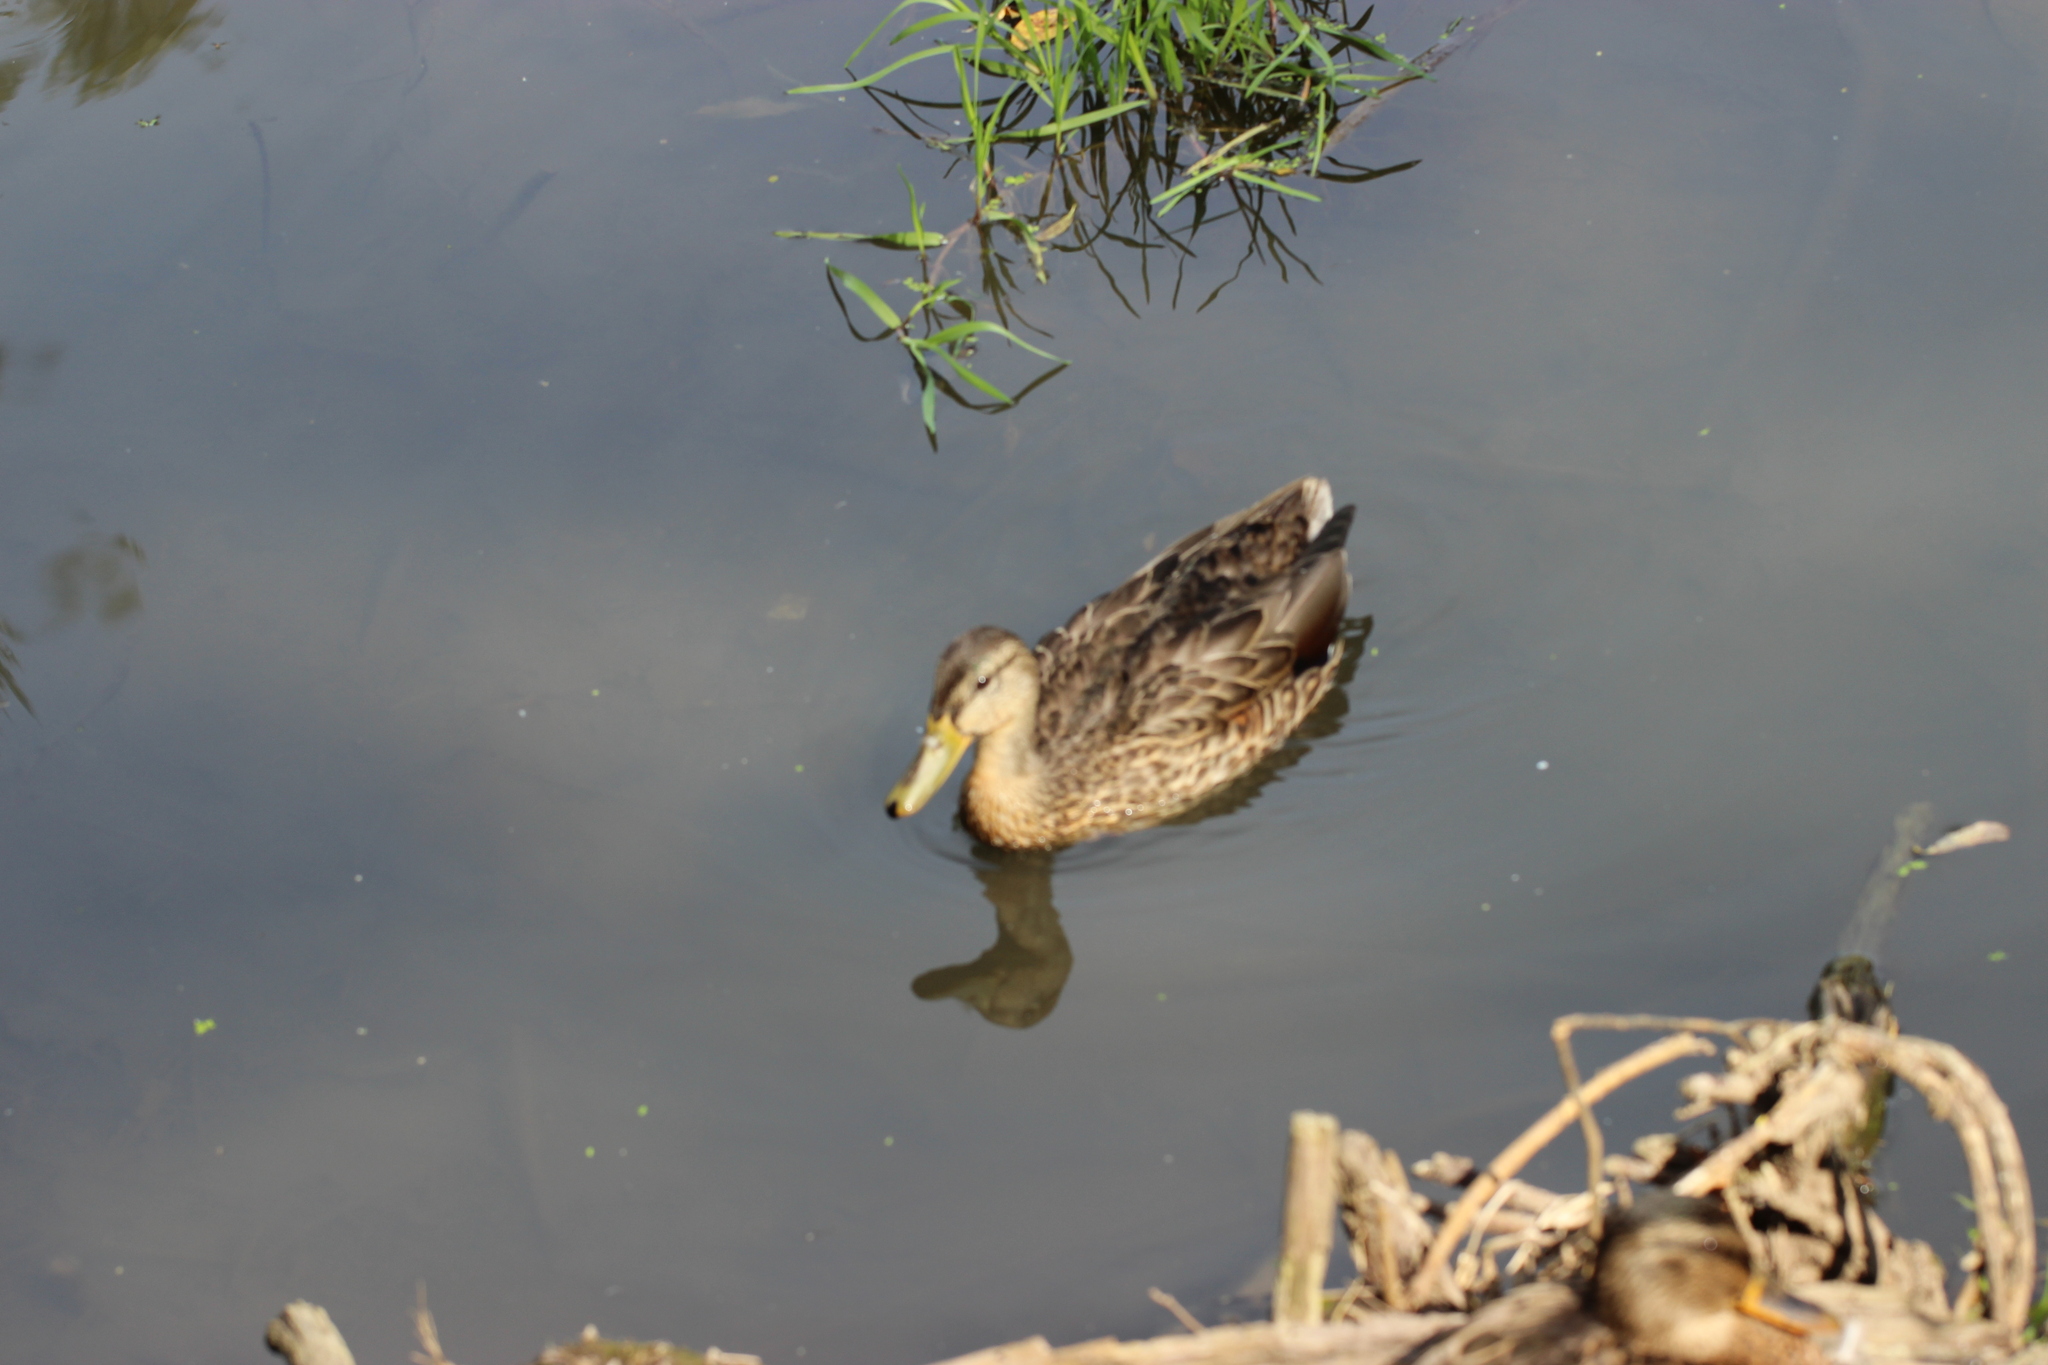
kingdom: Animalia
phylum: Chordata
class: Aves
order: Anseriformes
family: Anatidae
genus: Anas
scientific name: Anas platyrhynchos
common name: Mallard
